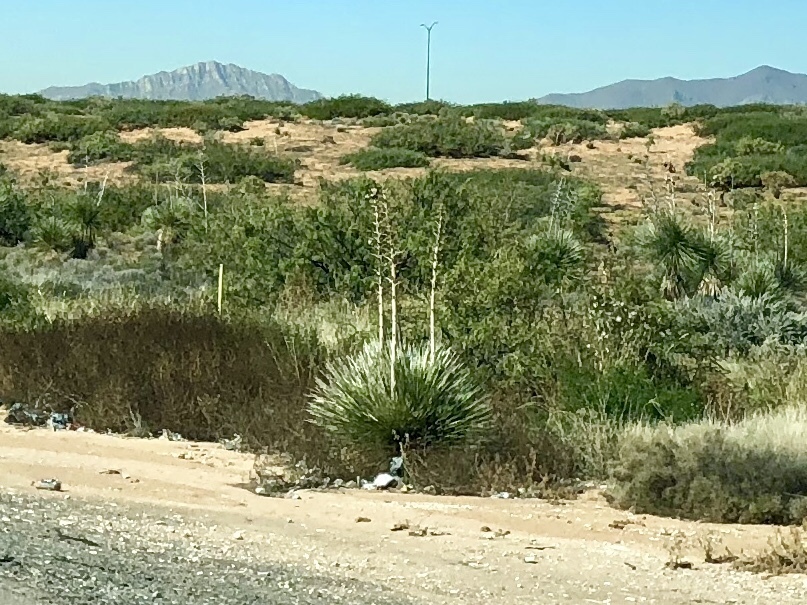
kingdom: Plantae
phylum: Tracheophyta
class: Liliopsida
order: Asparagales
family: Asparagaceae
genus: Yucca
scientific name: Yucca elata
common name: Palmella
